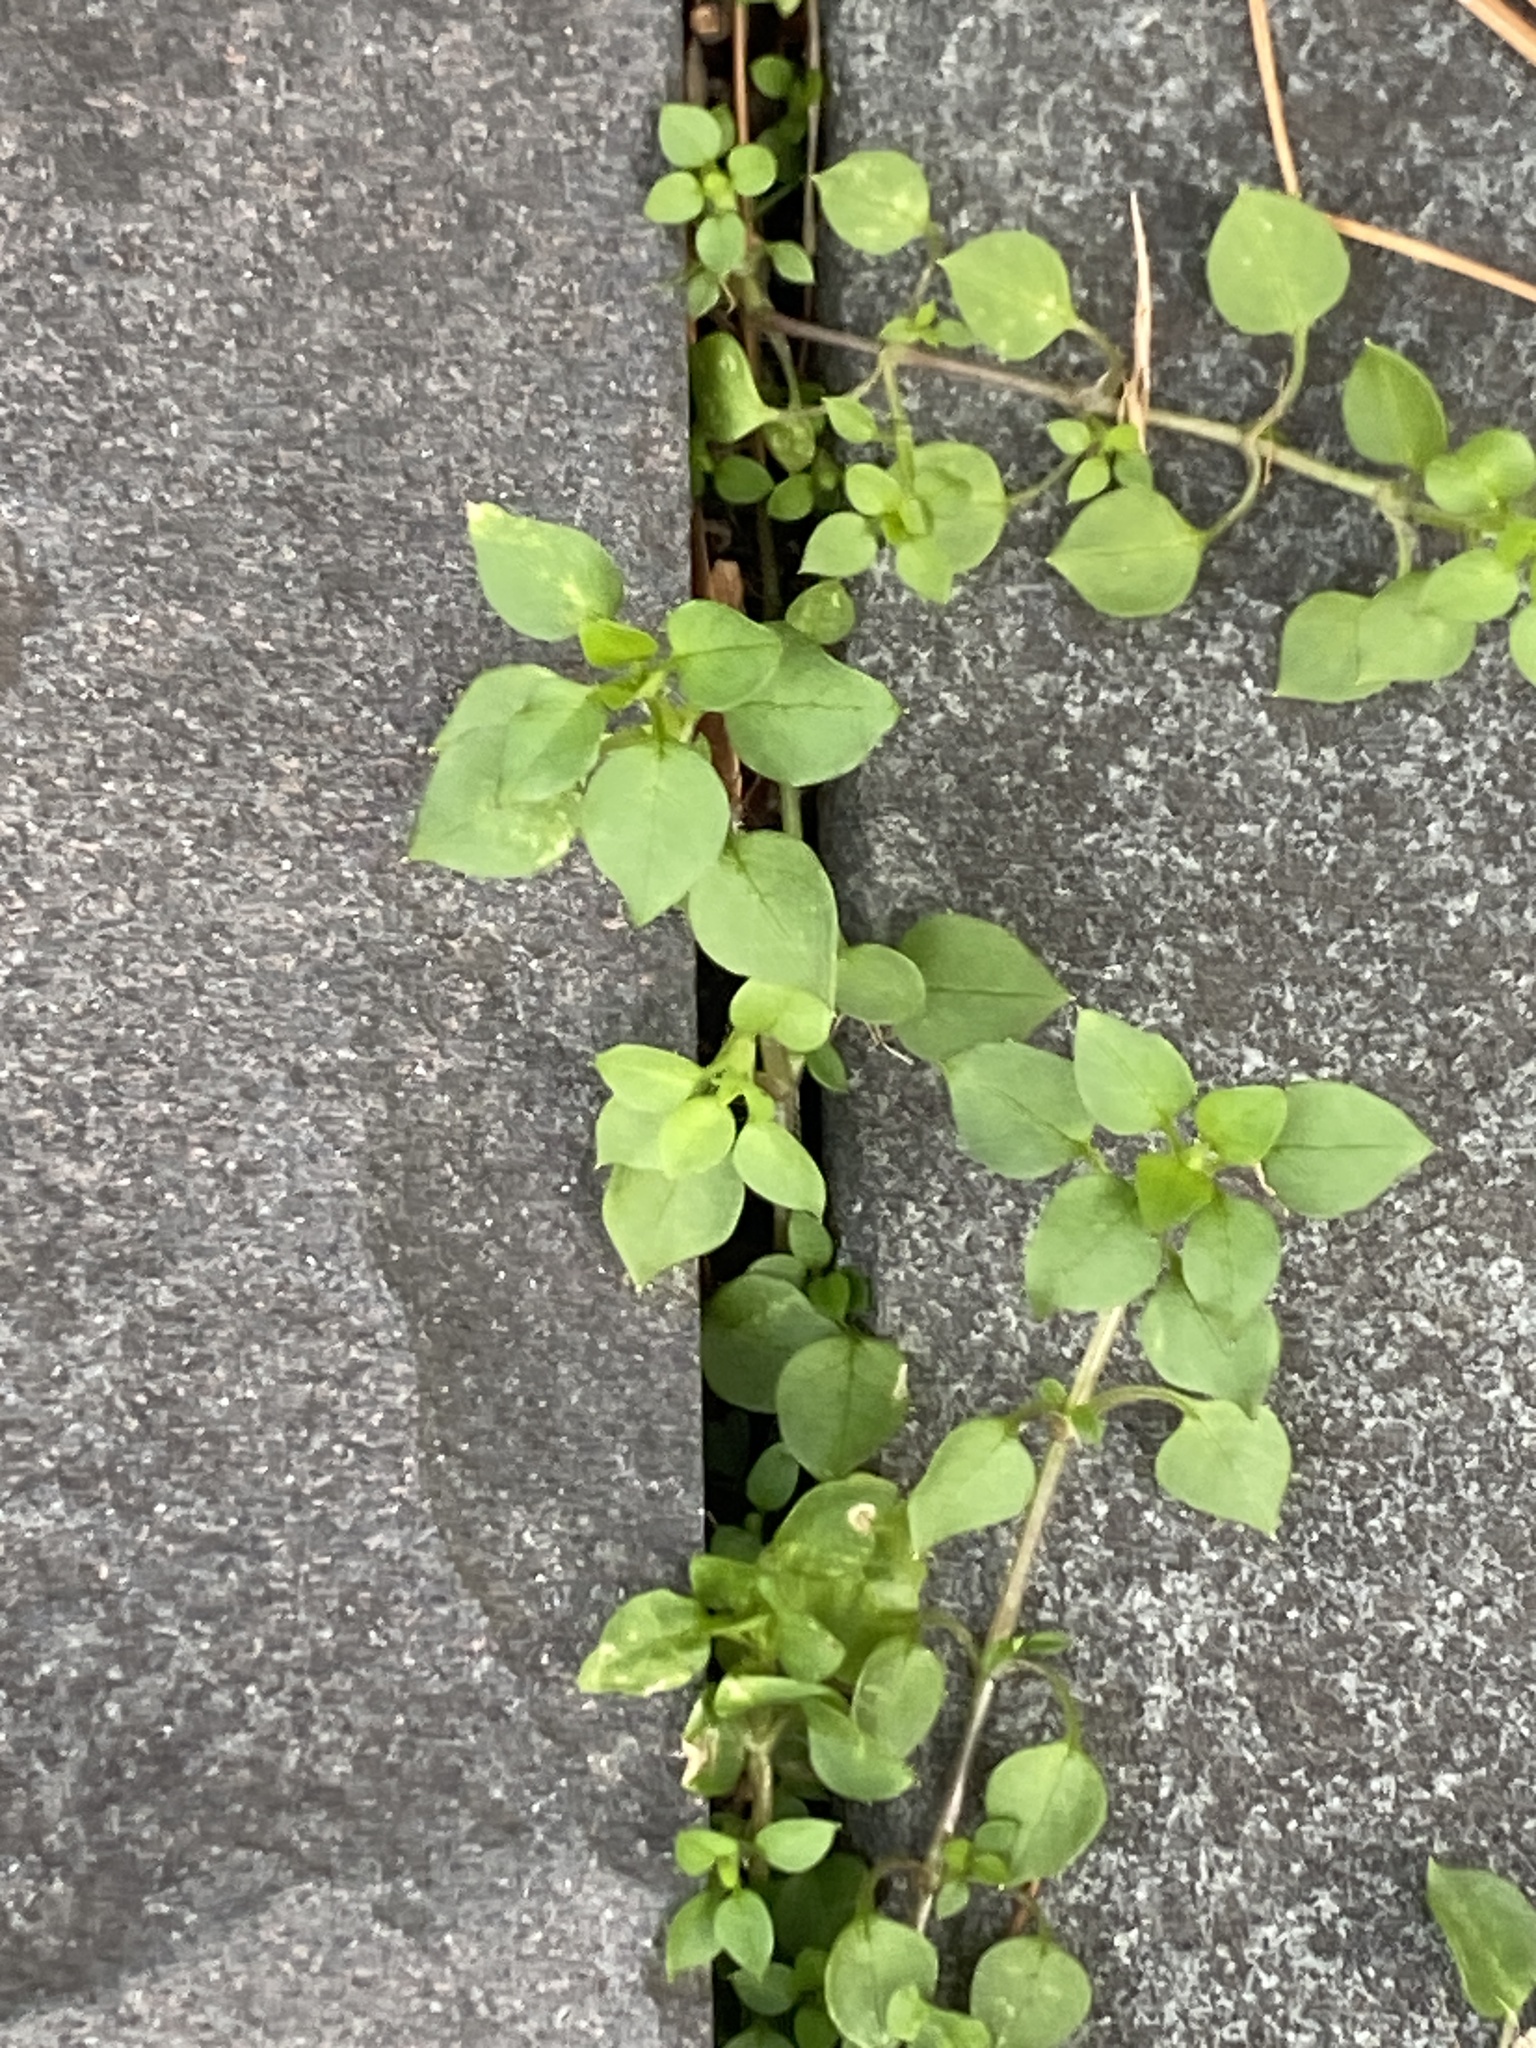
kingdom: Plantae
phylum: Tracheophyta
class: Magnoliopsida
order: Caryophyllales
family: Caryophyllaceae
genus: Stellaria
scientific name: Stellaria media
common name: Common chickweed
